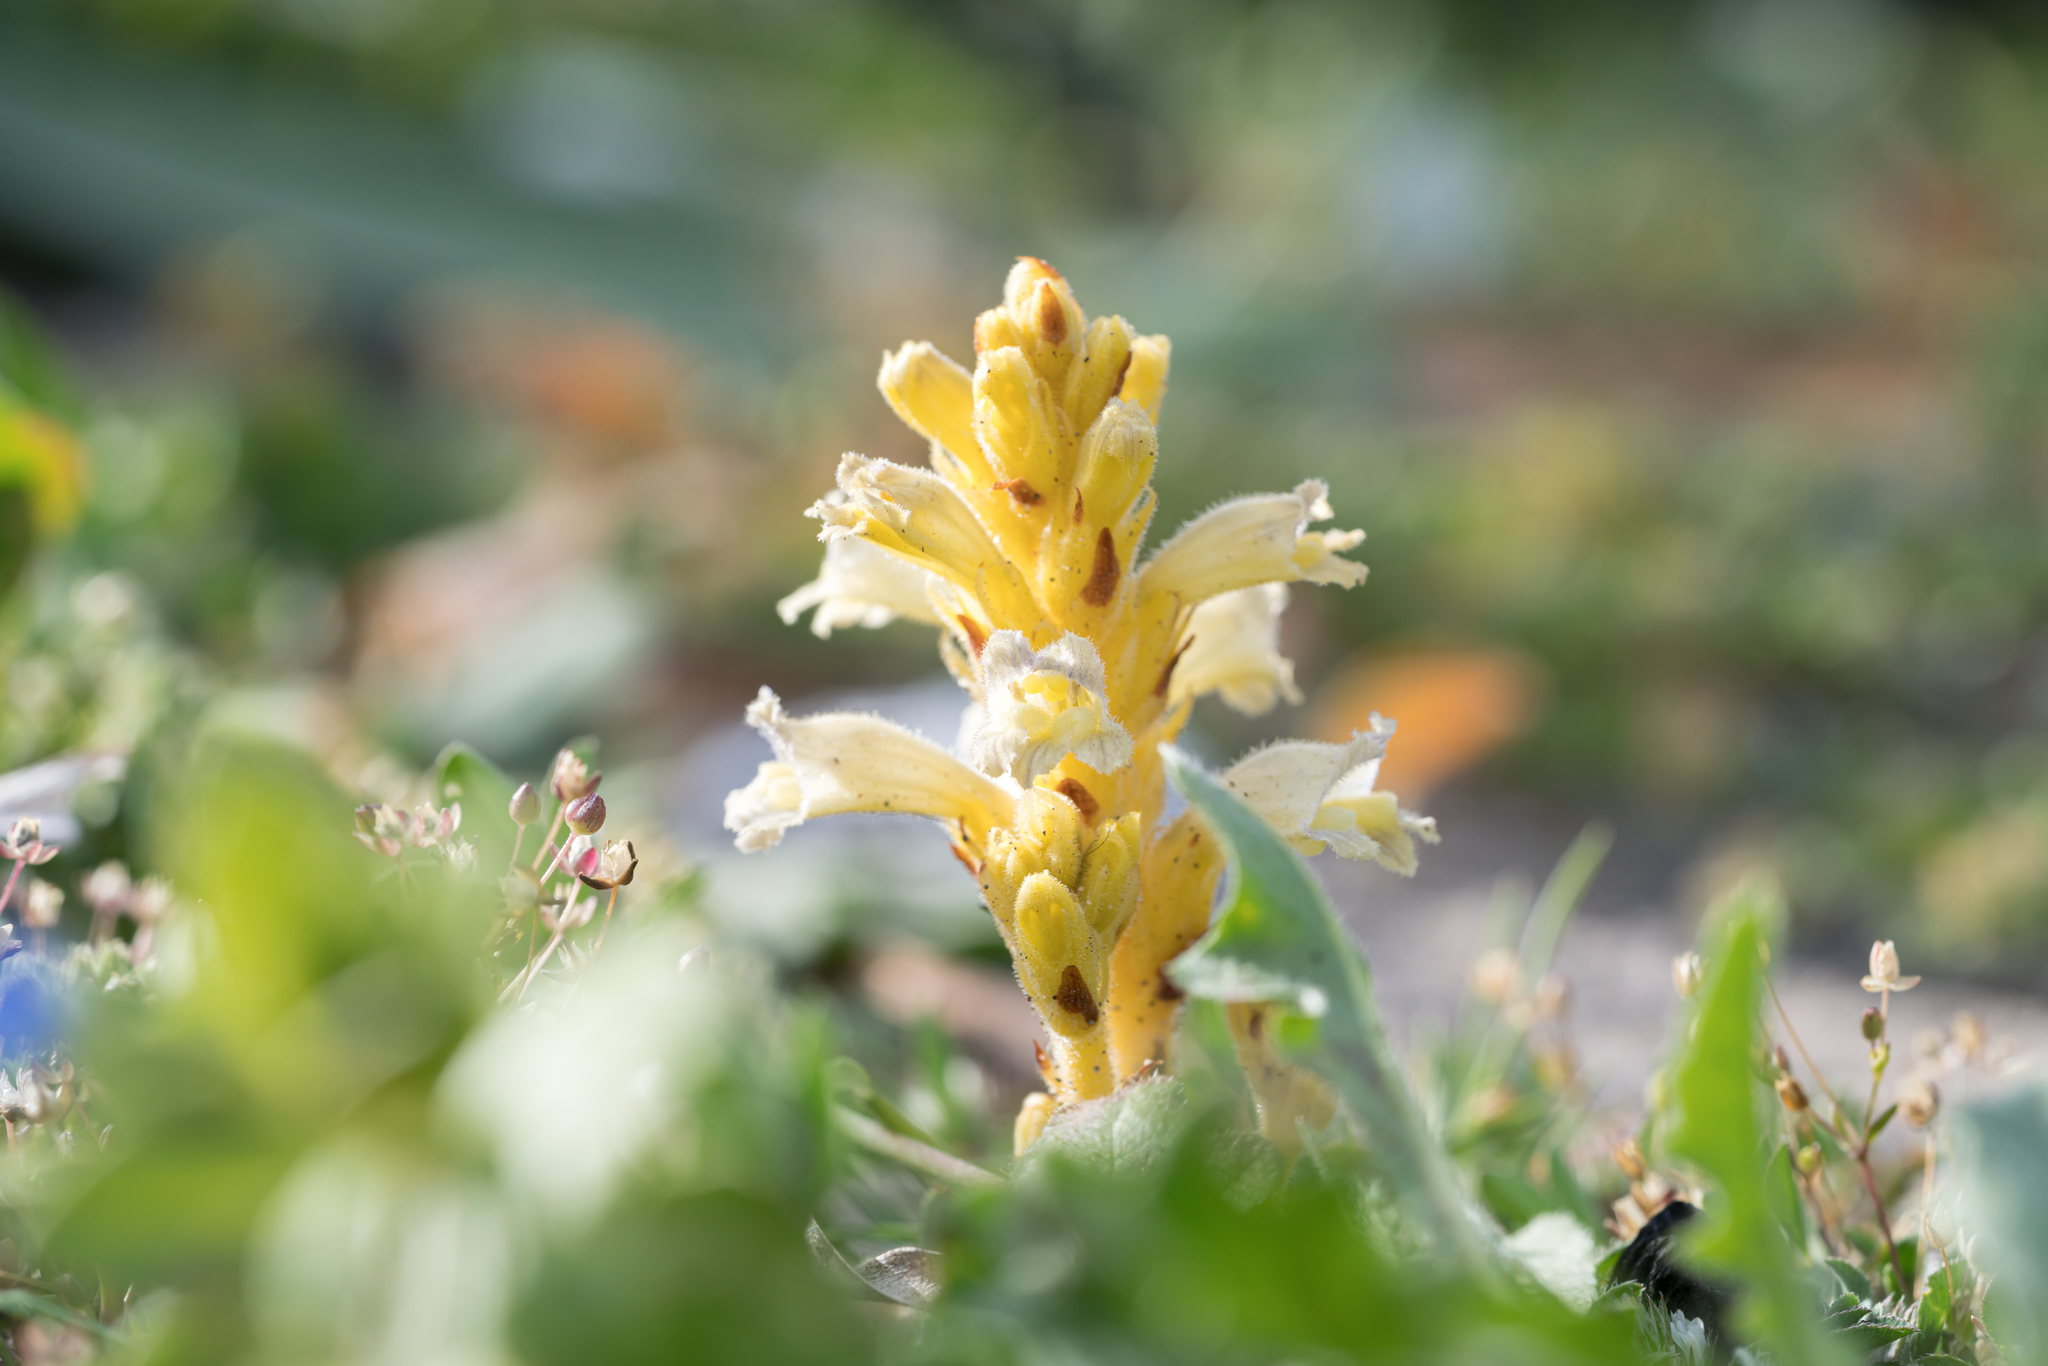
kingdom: Plantae
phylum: Tracheophyta
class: Magnoliopsida
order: Lamiales
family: Orobanchaceae
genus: Phelipanche
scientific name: Phelipanche hedypnoidis
